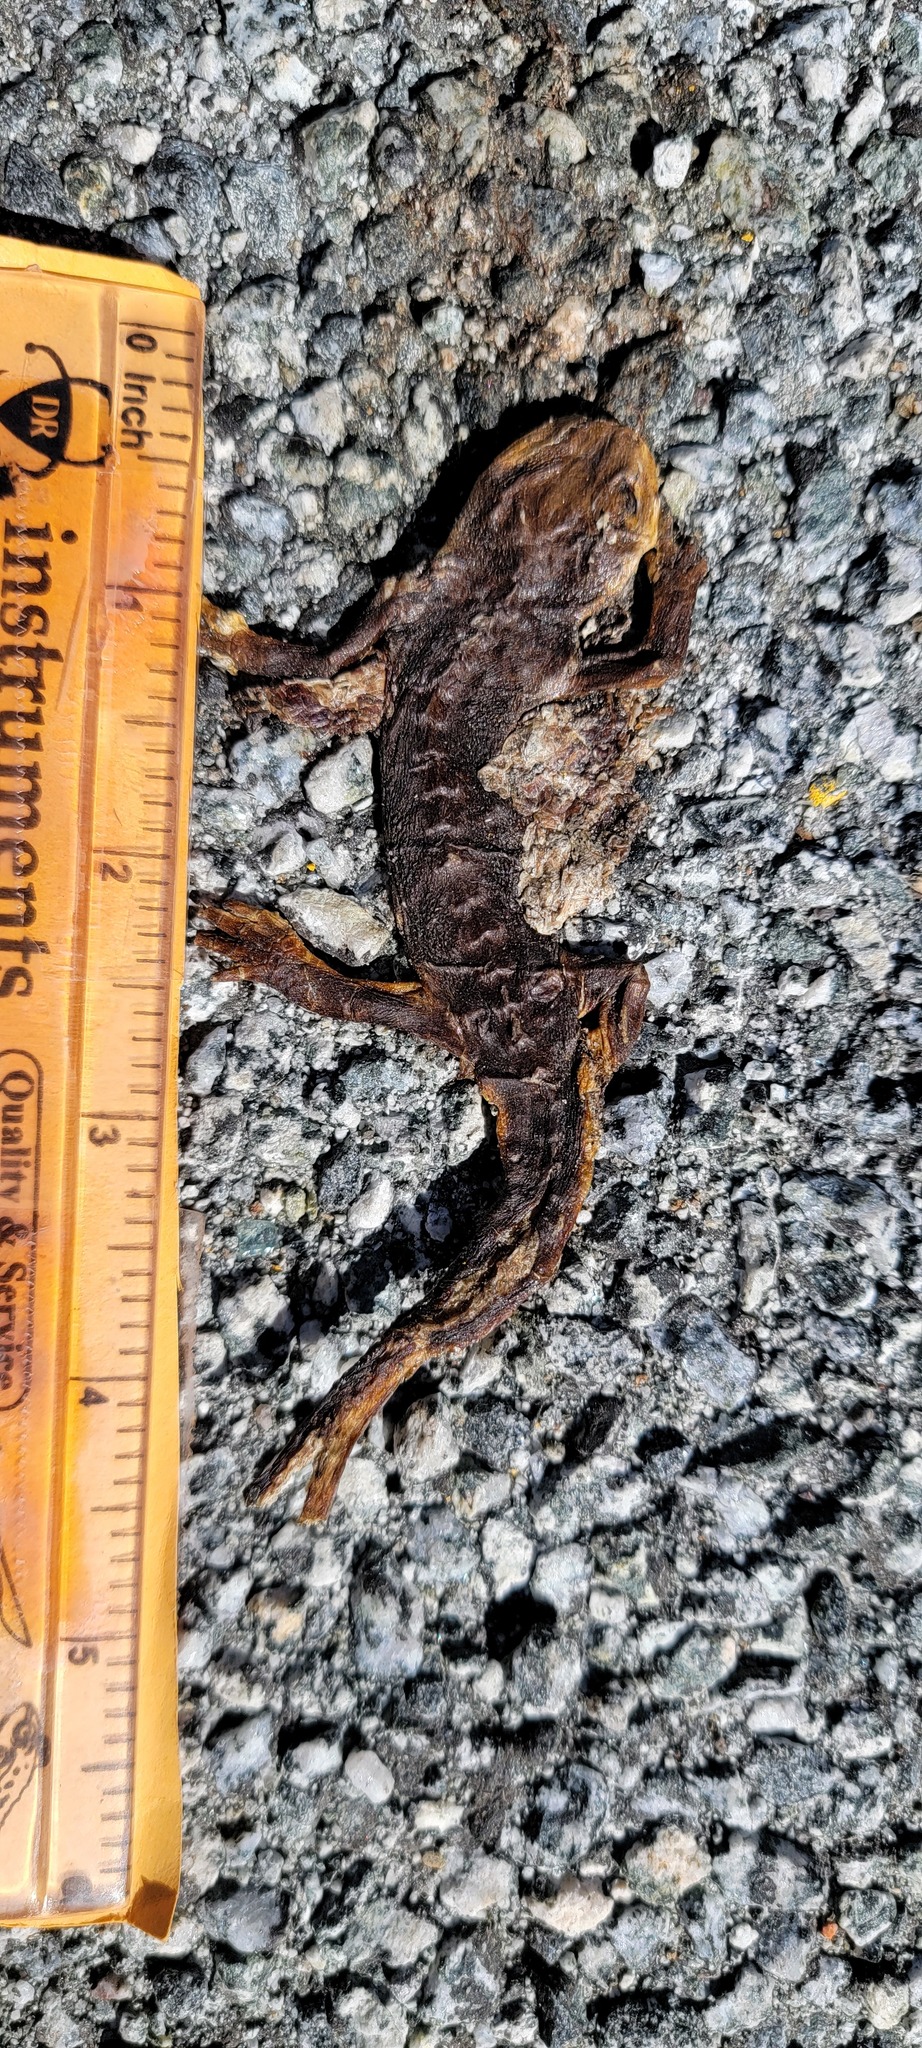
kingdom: Animalia
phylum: Chordata
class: Amphibia
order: Caudata
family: Salamandridae
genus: Taricha
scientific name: Taricha
